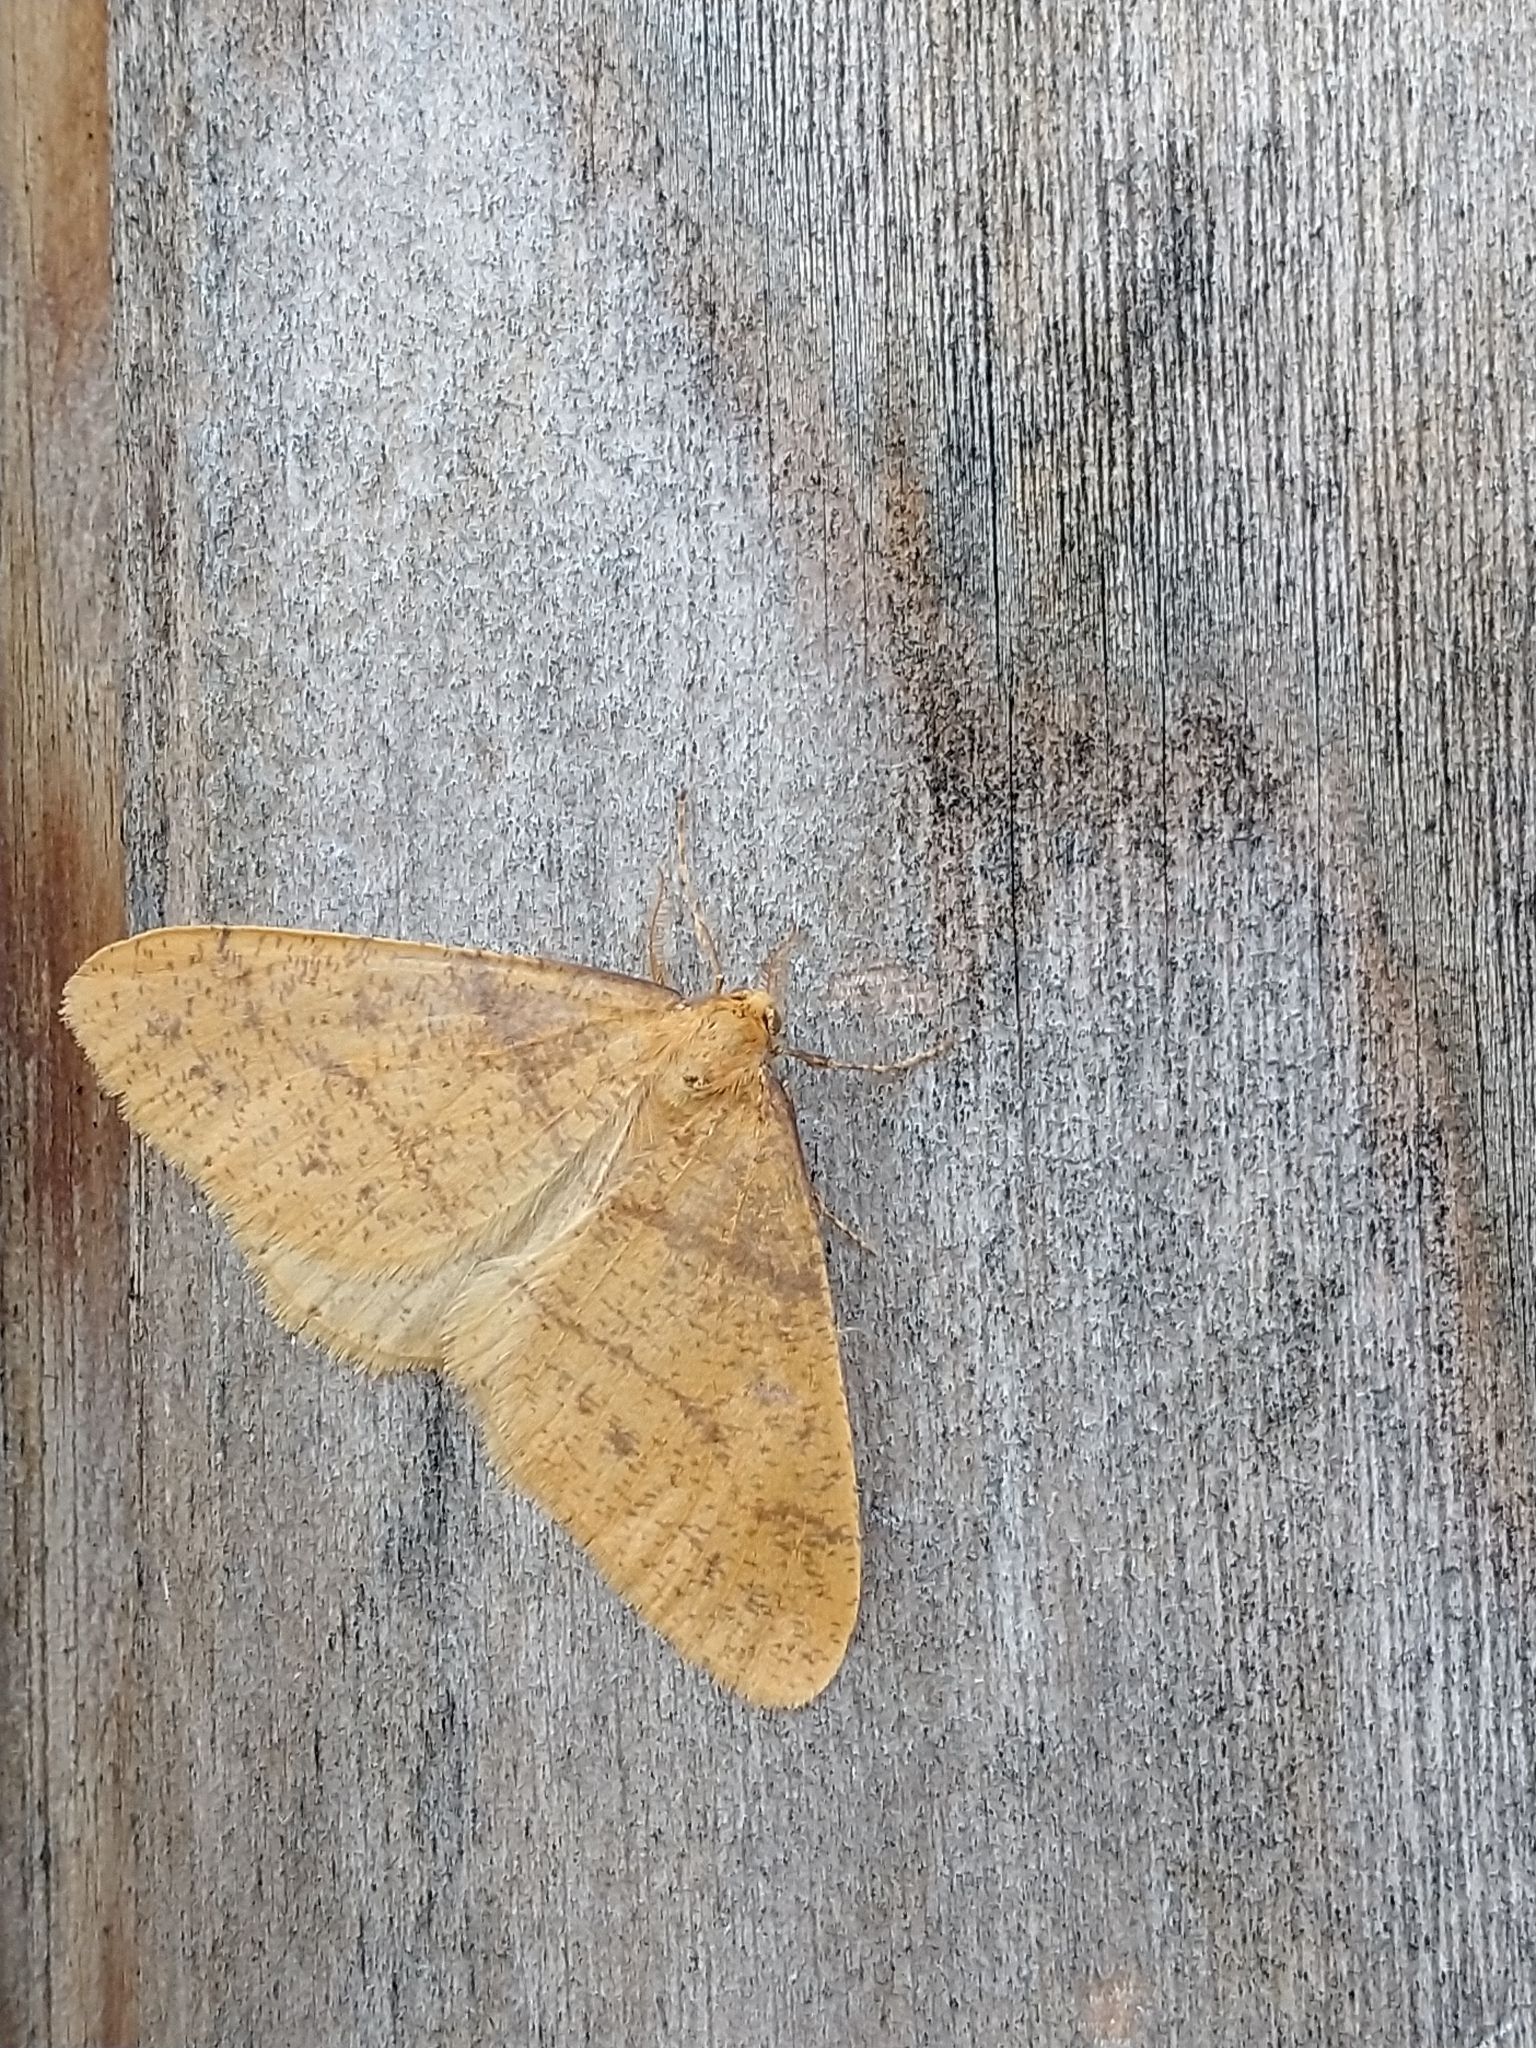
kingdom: Animalia
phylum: Arthropoda
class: Insecta
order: Lepidoptera
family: Geometridae
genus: Agriopis
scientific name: Agriopis aurantiaria
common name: Scarce umber
